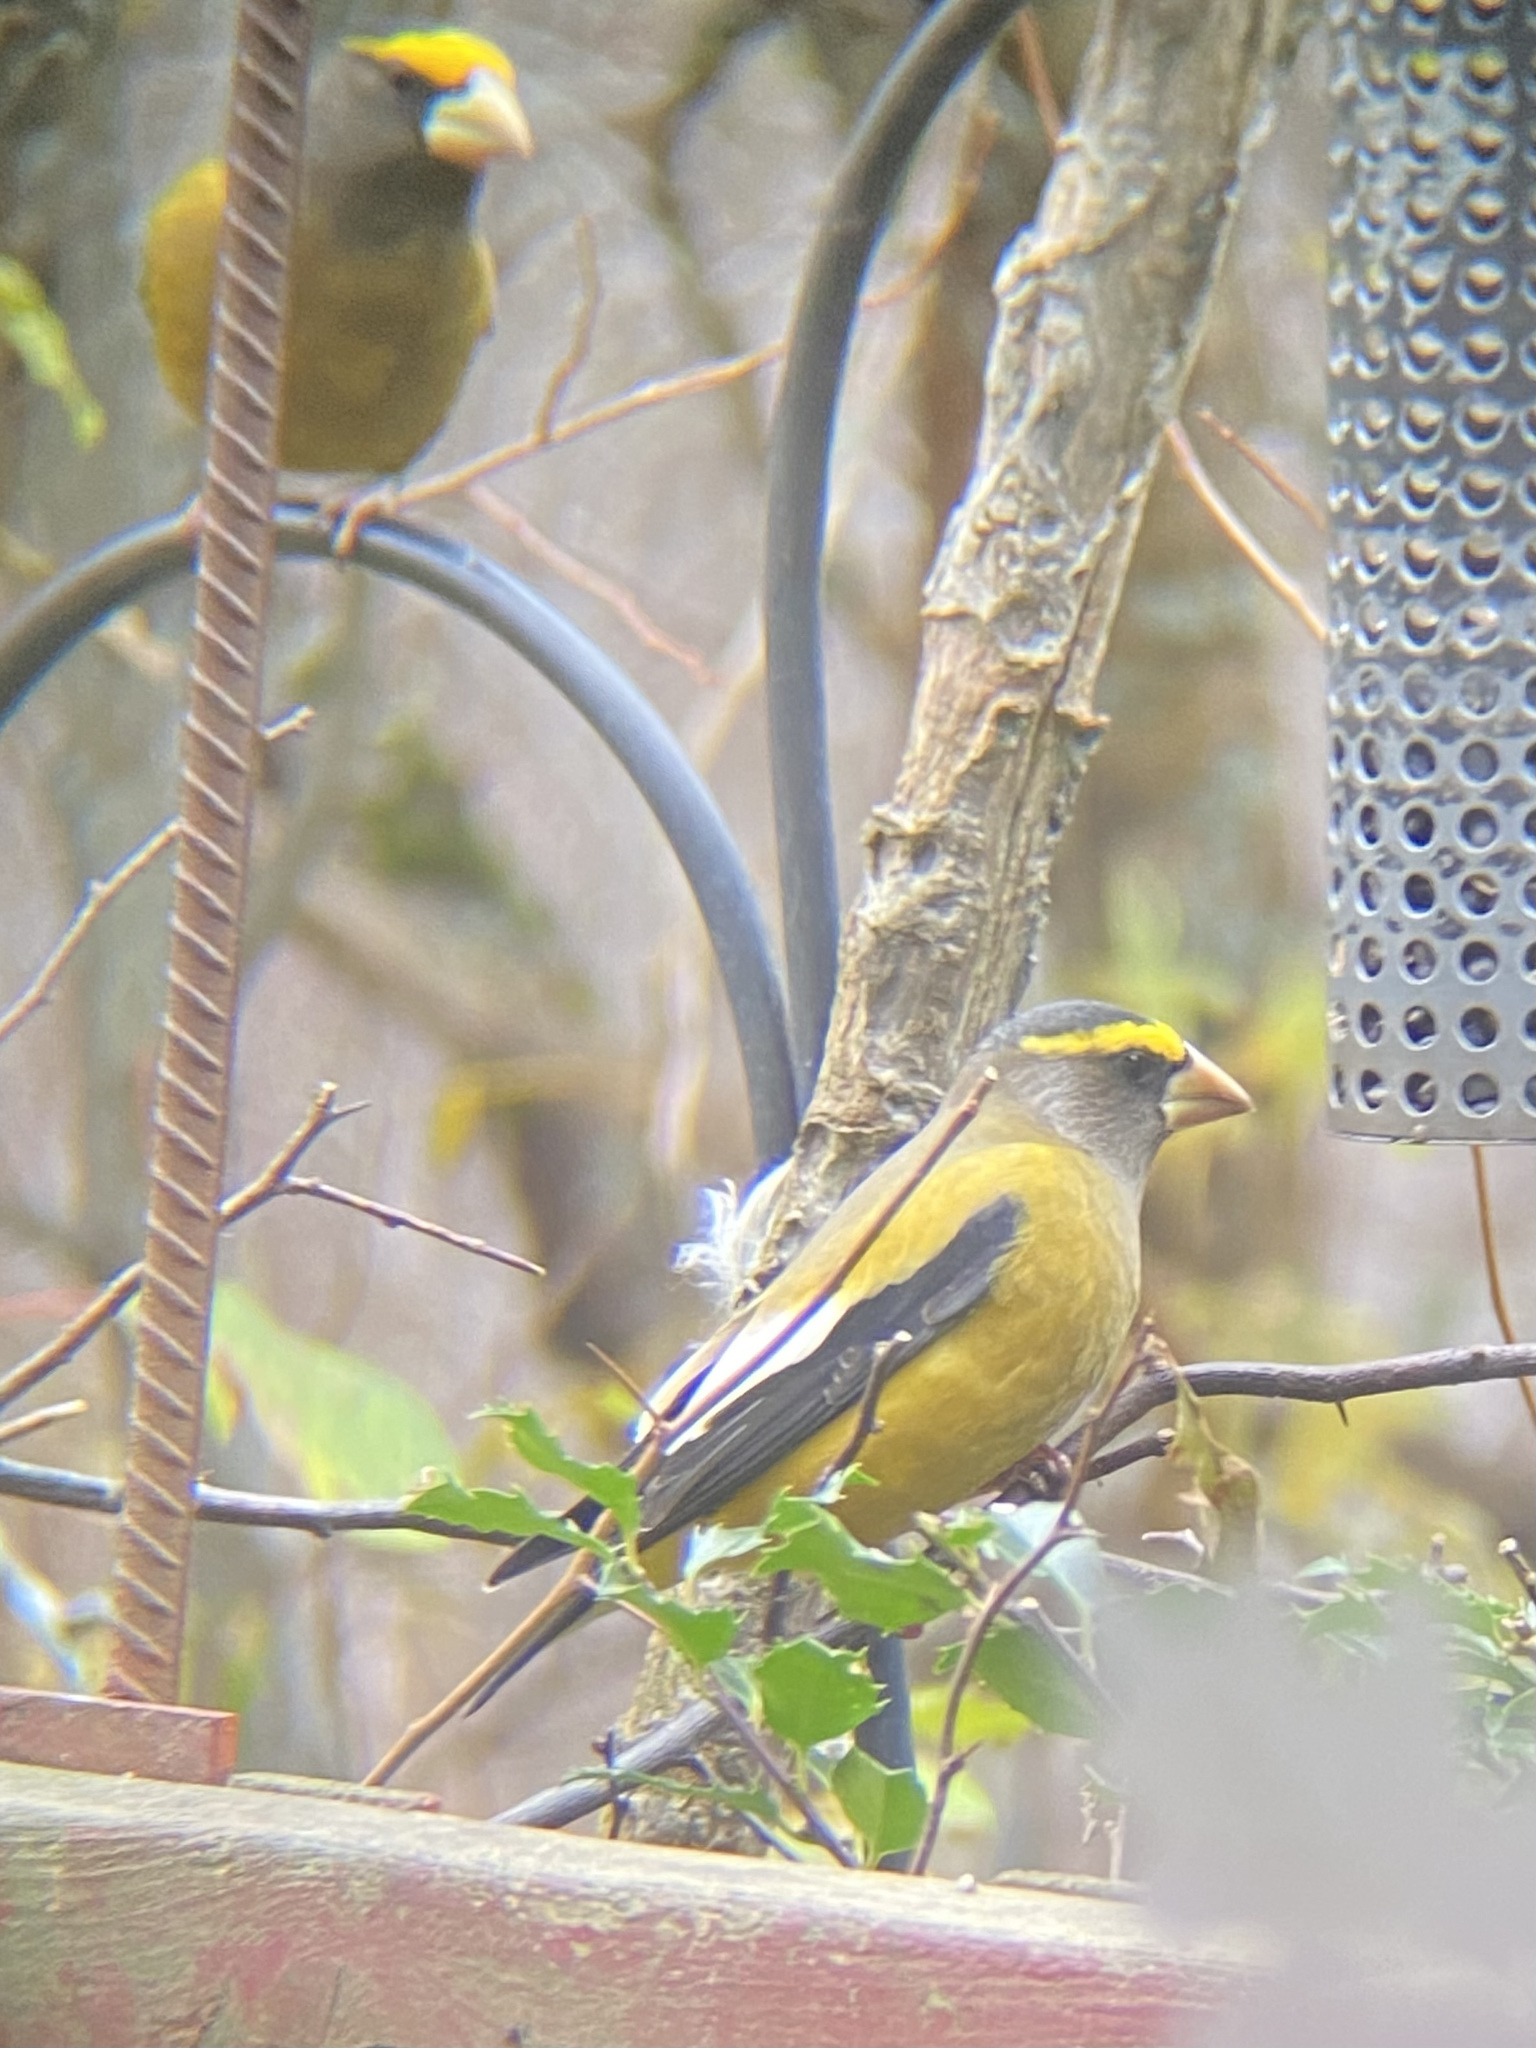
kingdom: Animalia
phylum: Chordata
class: Aves
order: Passeriformes
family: Fringillidae
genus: Hesperiphona
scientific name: Hesperiphona vespertina
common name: Evening grosbeak
